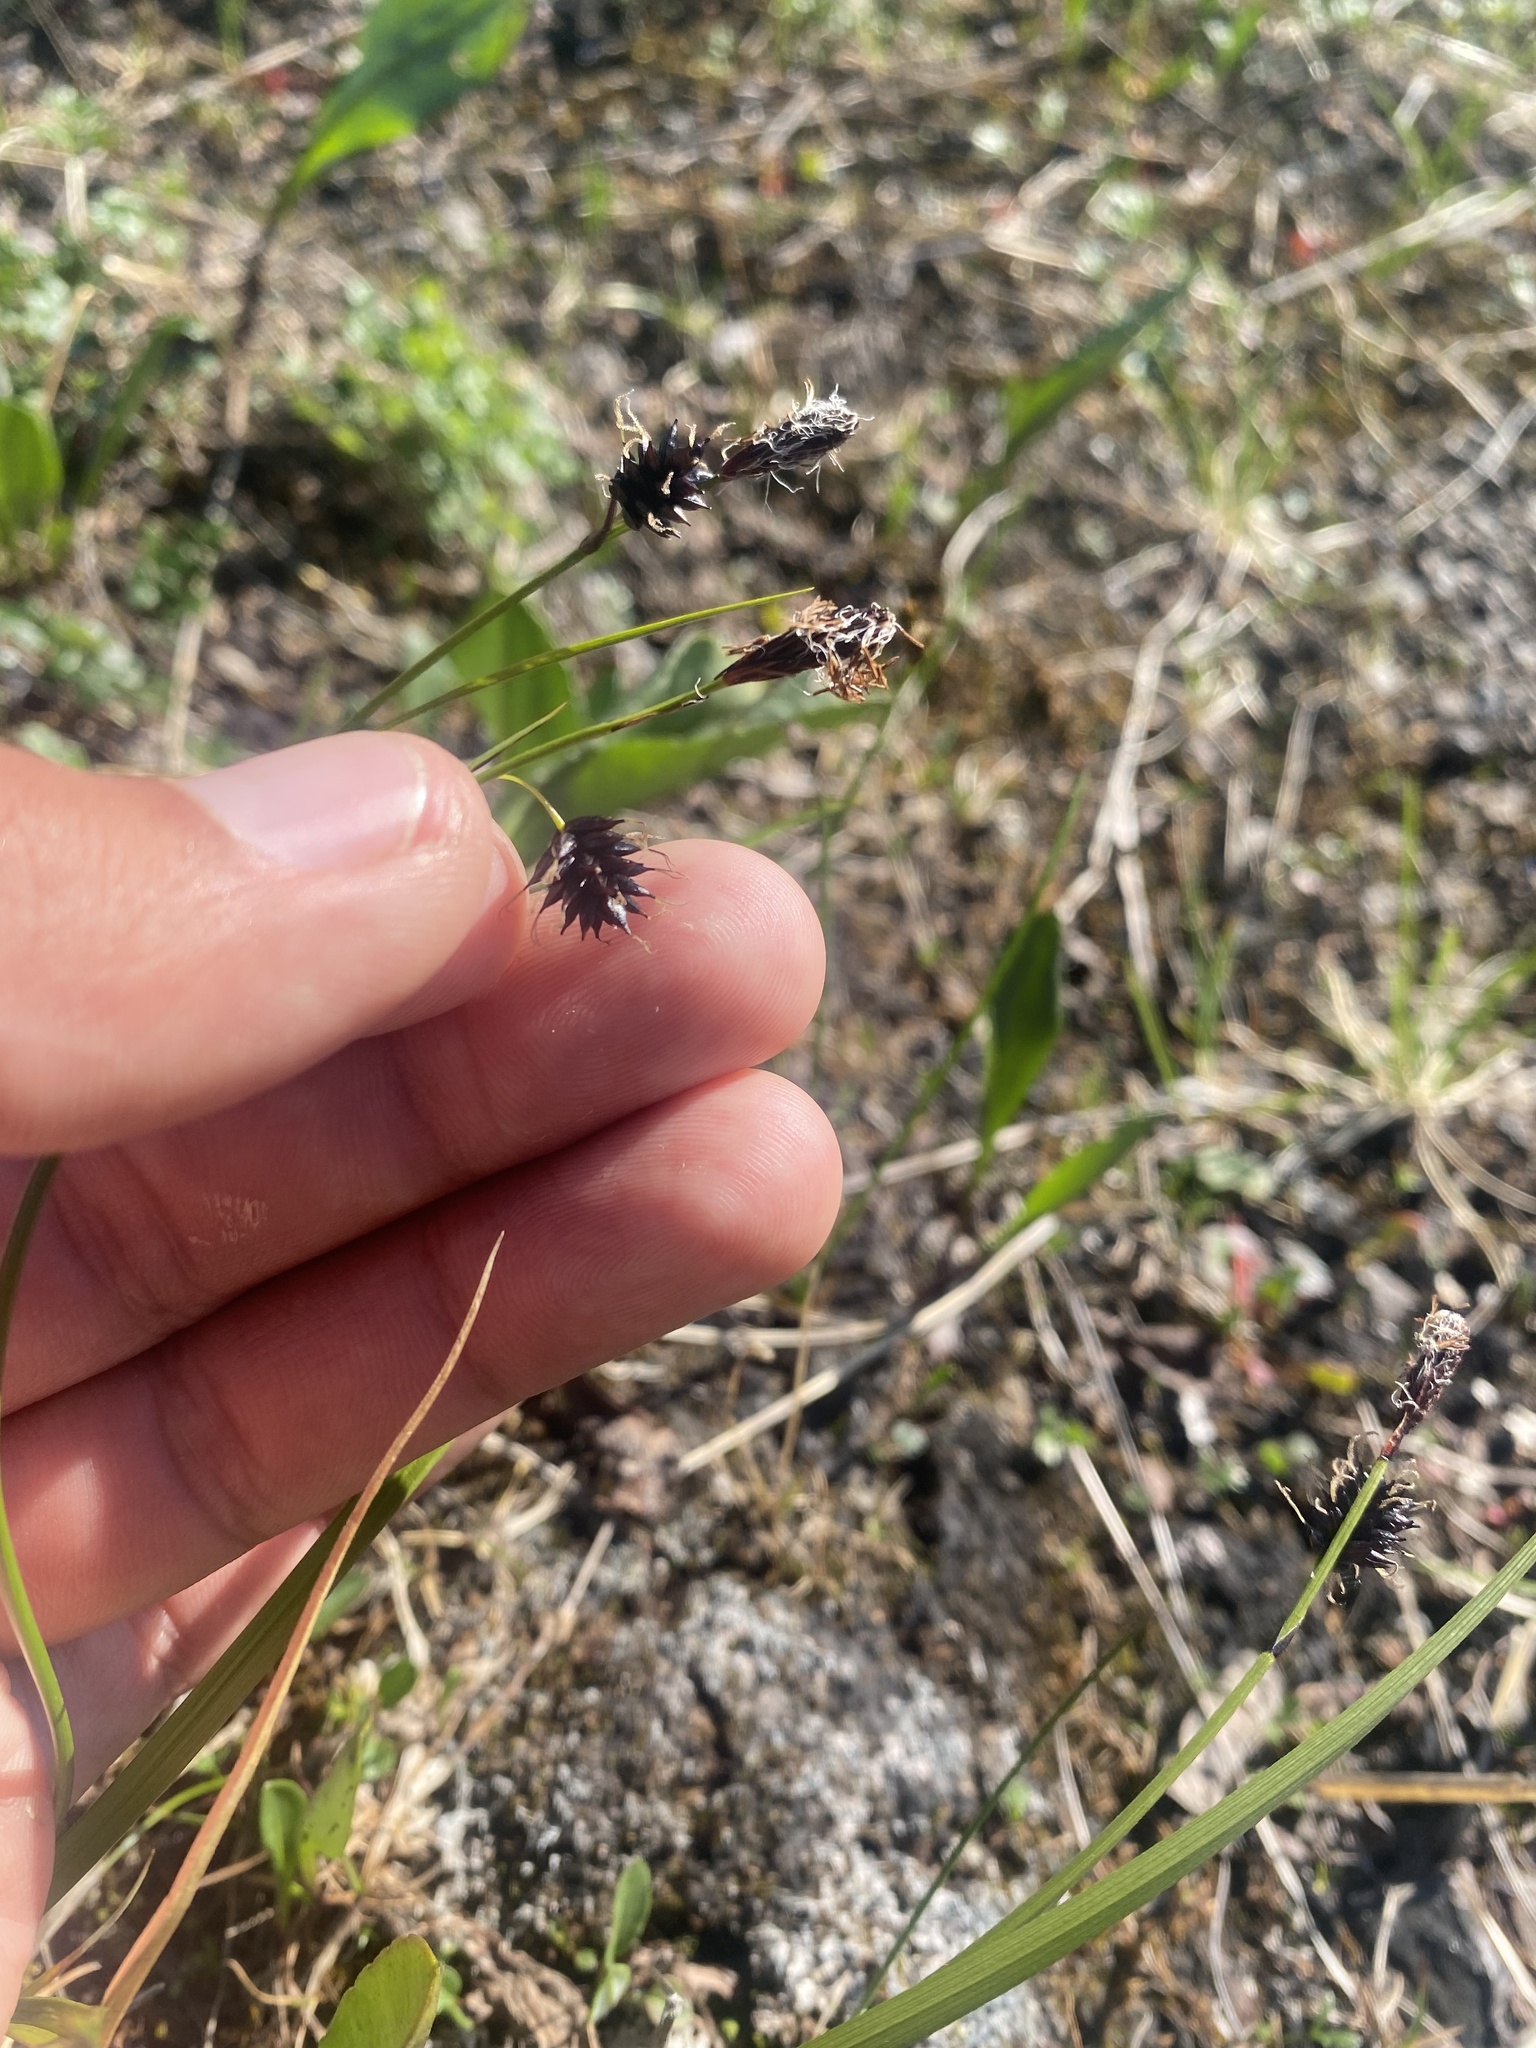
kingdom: Plantae
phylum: Tracheophyta
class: Liliopsida
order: Poales
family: Cyperaceae
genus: Carex
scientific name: Carex saxatilis
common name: Russet sedge
